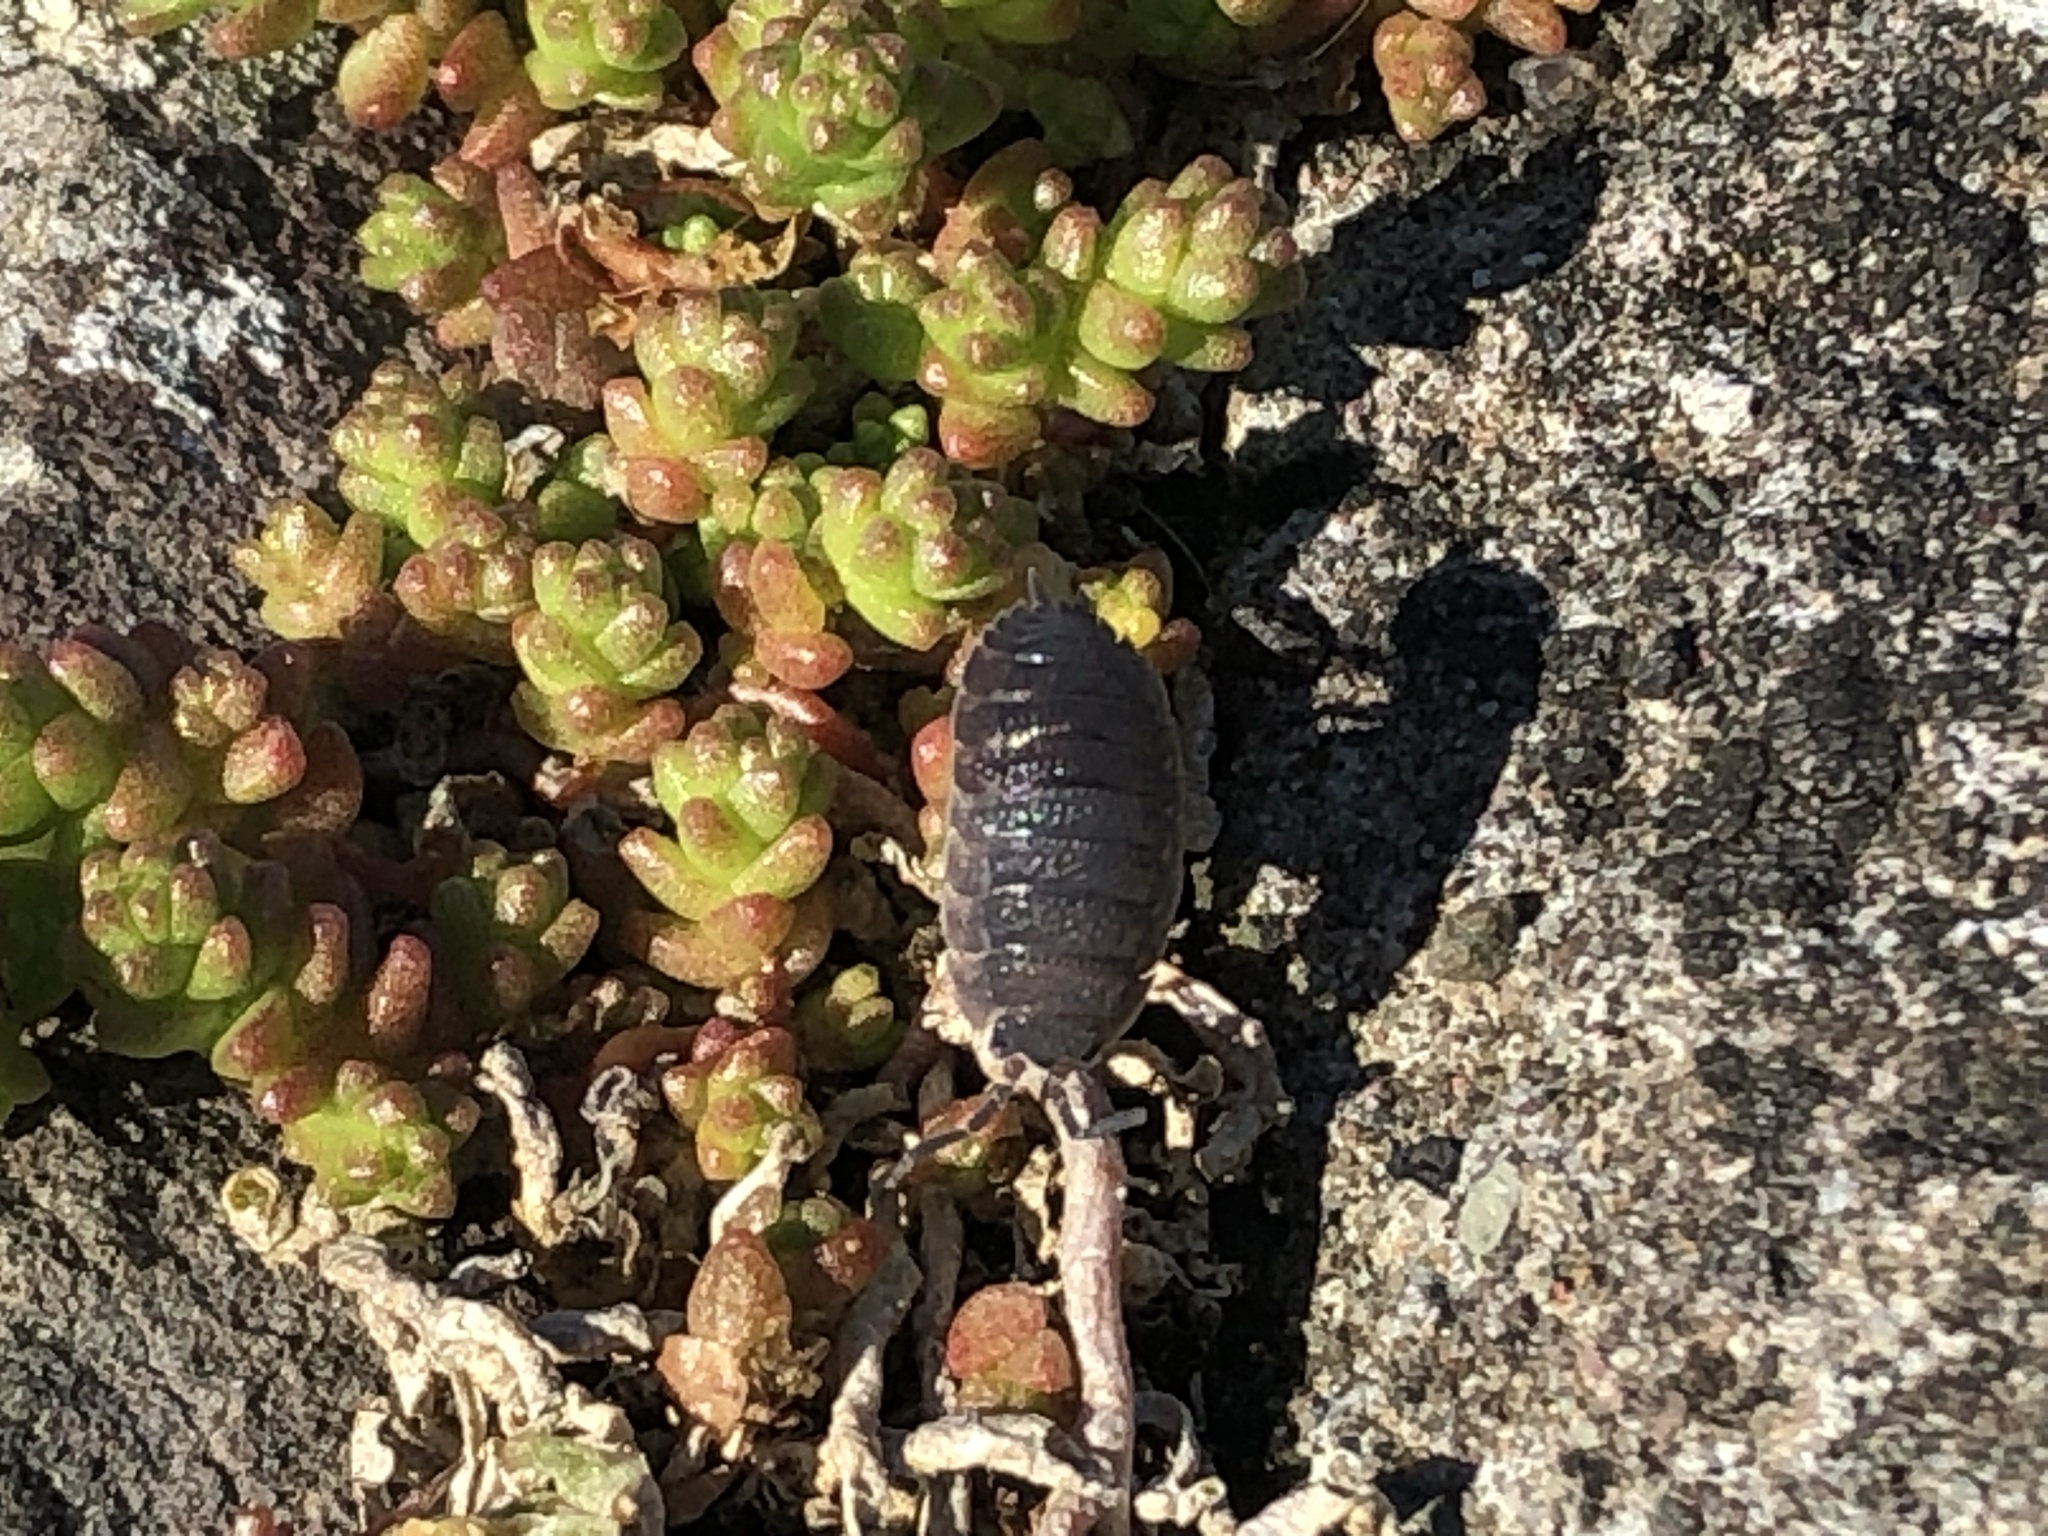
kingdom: Animalia
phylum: Arthropoda
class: Malacostraca
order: Isopoda
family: Porcellionidae
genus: Porcellio
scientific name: Porcellio scaber
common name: Common rough woodlouse
